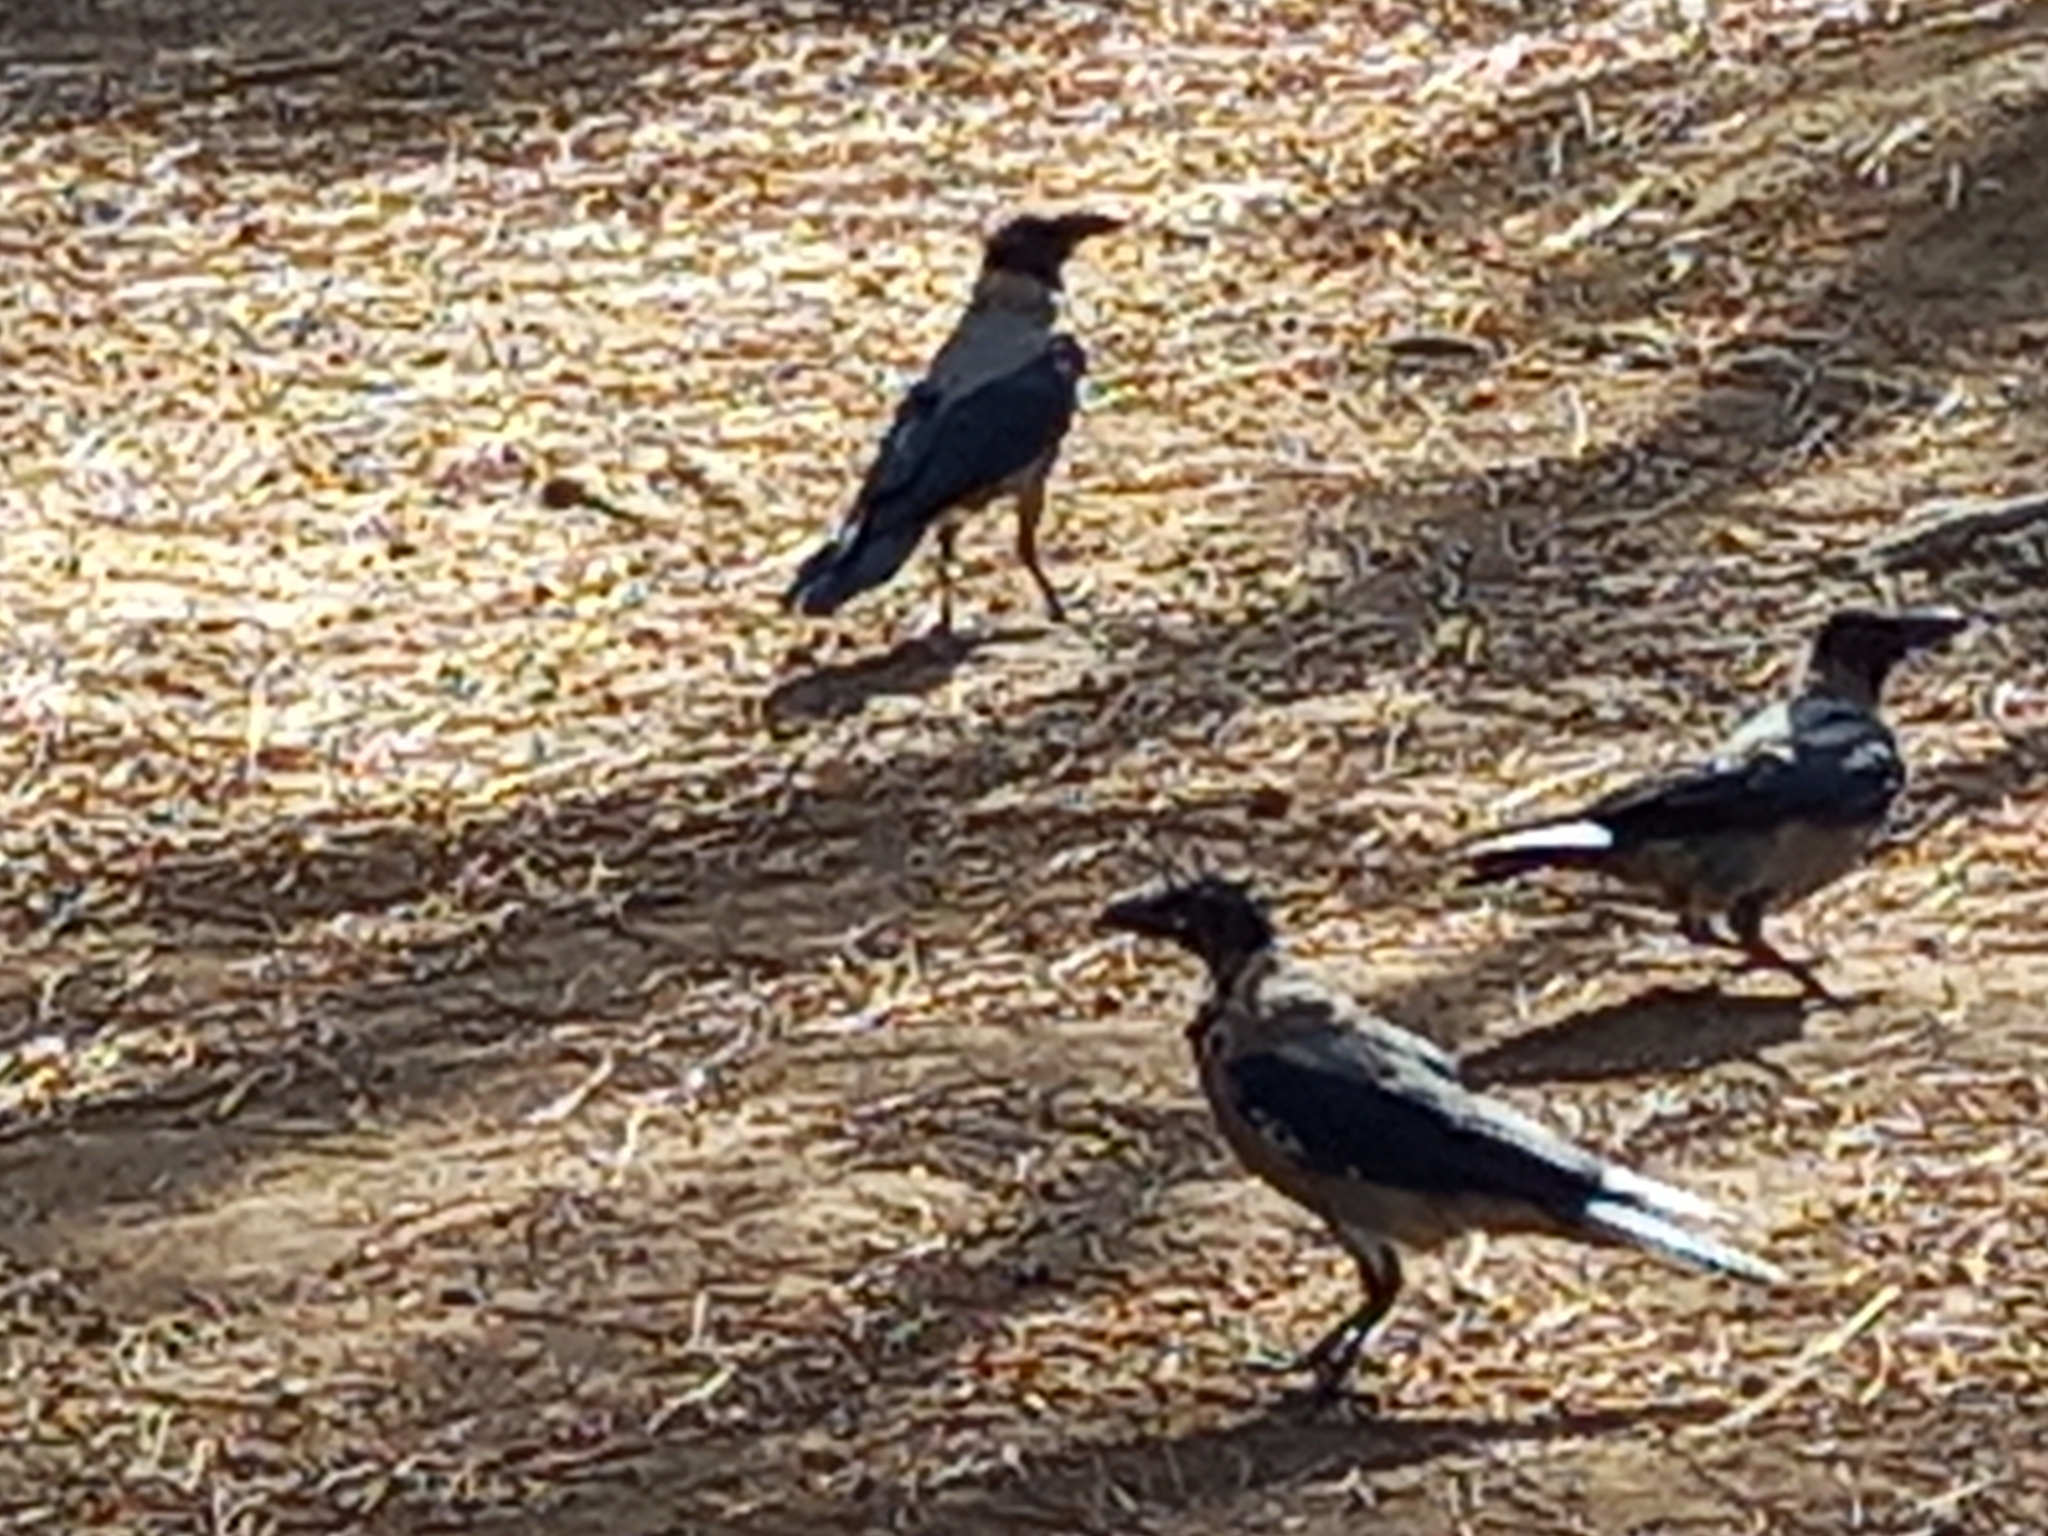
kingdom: Animalia
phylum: Chordata
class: Aves
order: Passeriformes
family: Corvidae
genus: Corvus
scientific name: Corvus cornix
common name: Hooded crow
